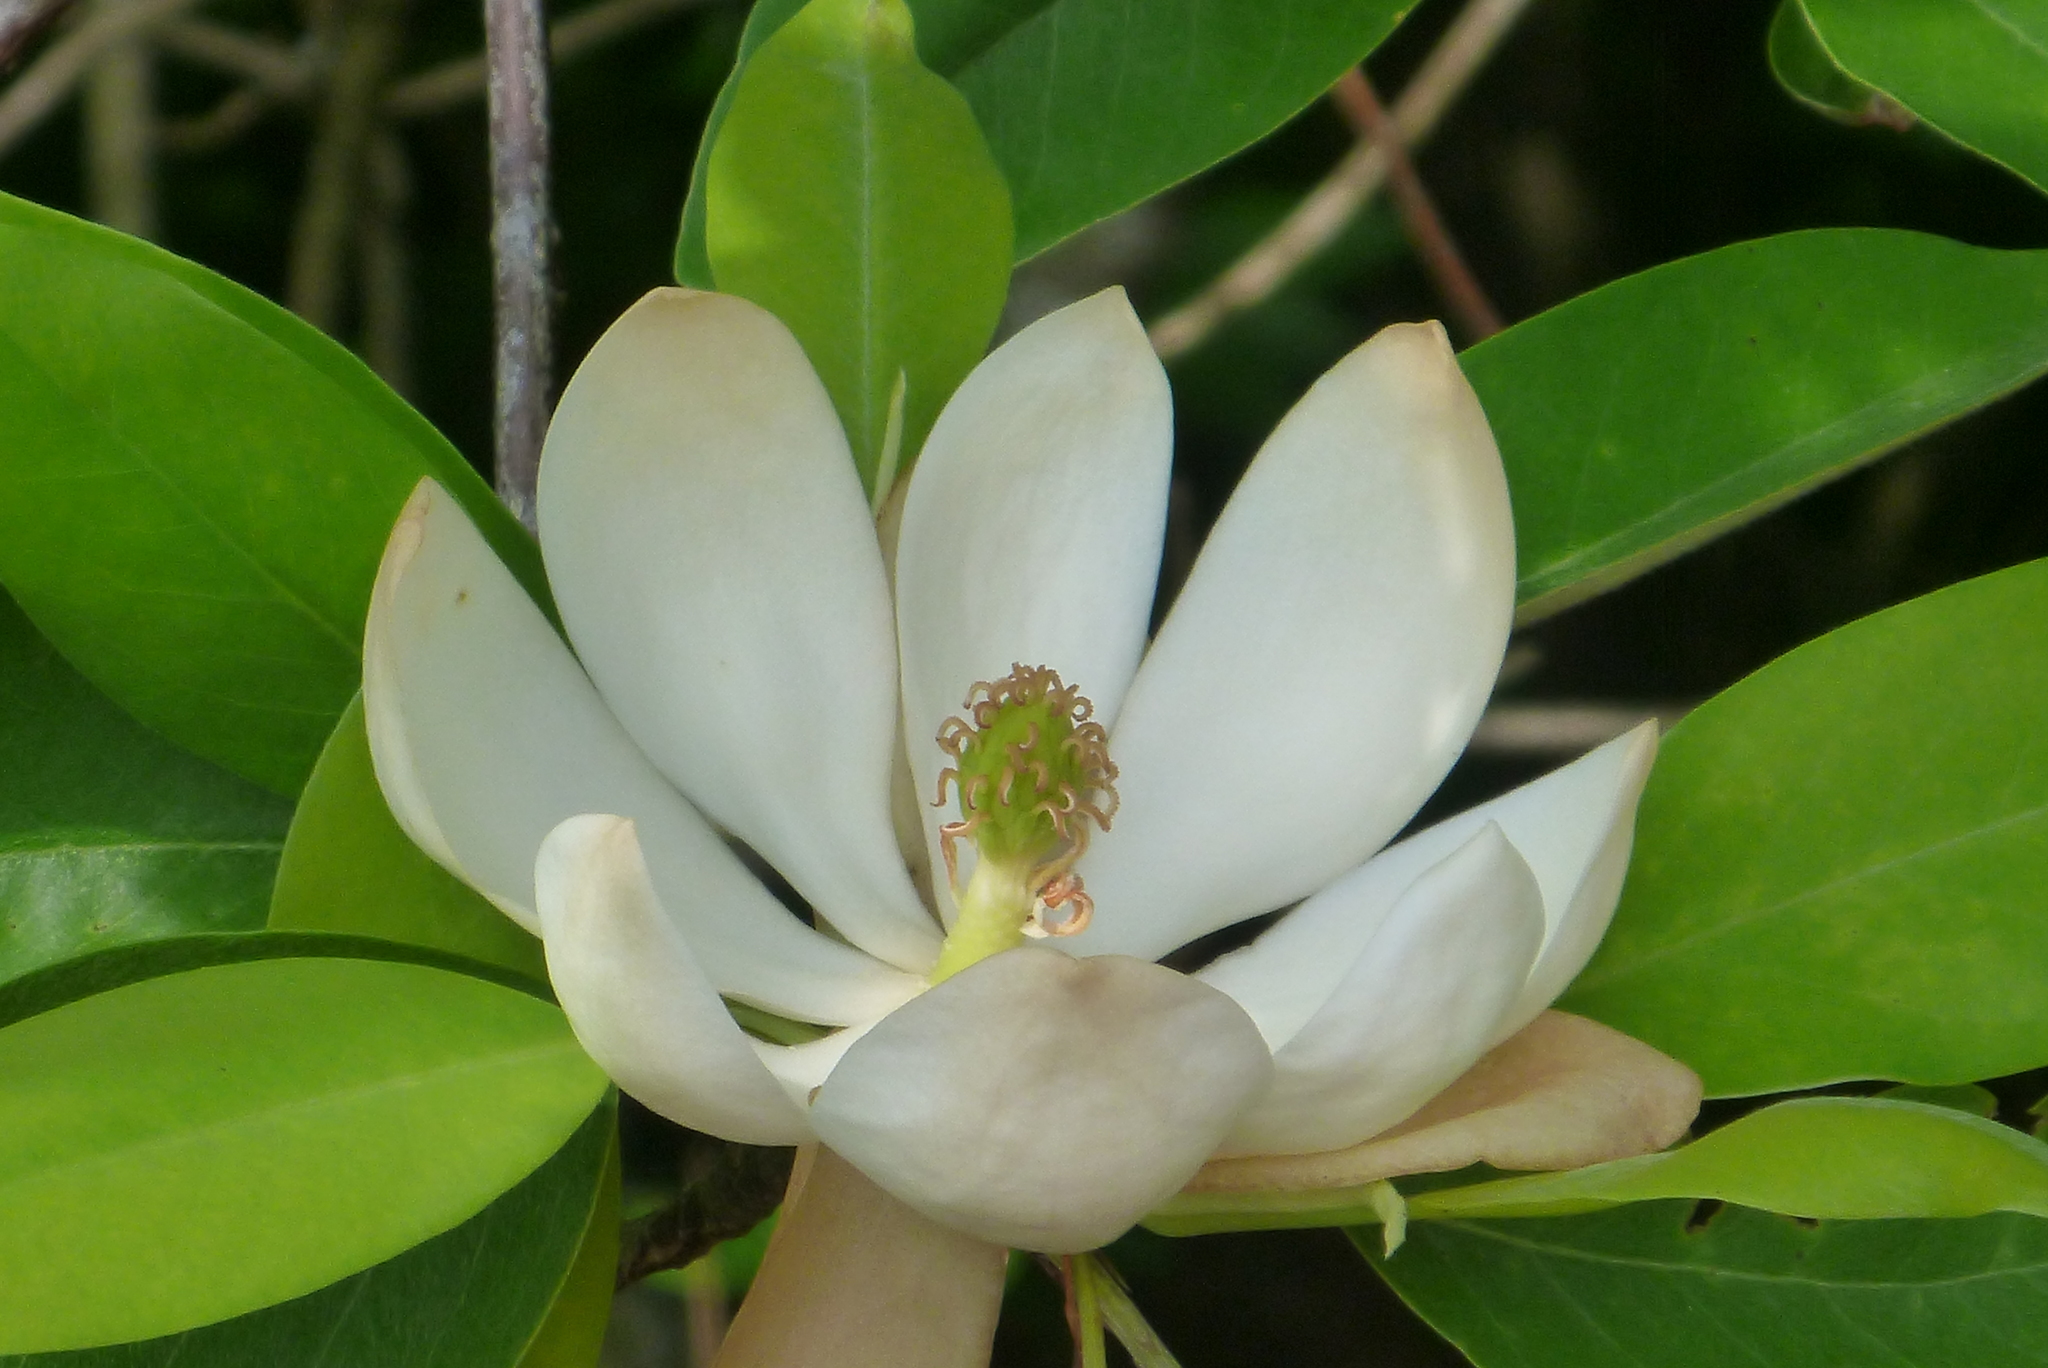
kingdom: Plantae
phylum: Tracheophyta
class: Magnoliopsida
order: Magnoliales
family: Magnoliaceae
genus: Magnolia
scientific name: Magnolia virginiana
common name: Swamp bay
